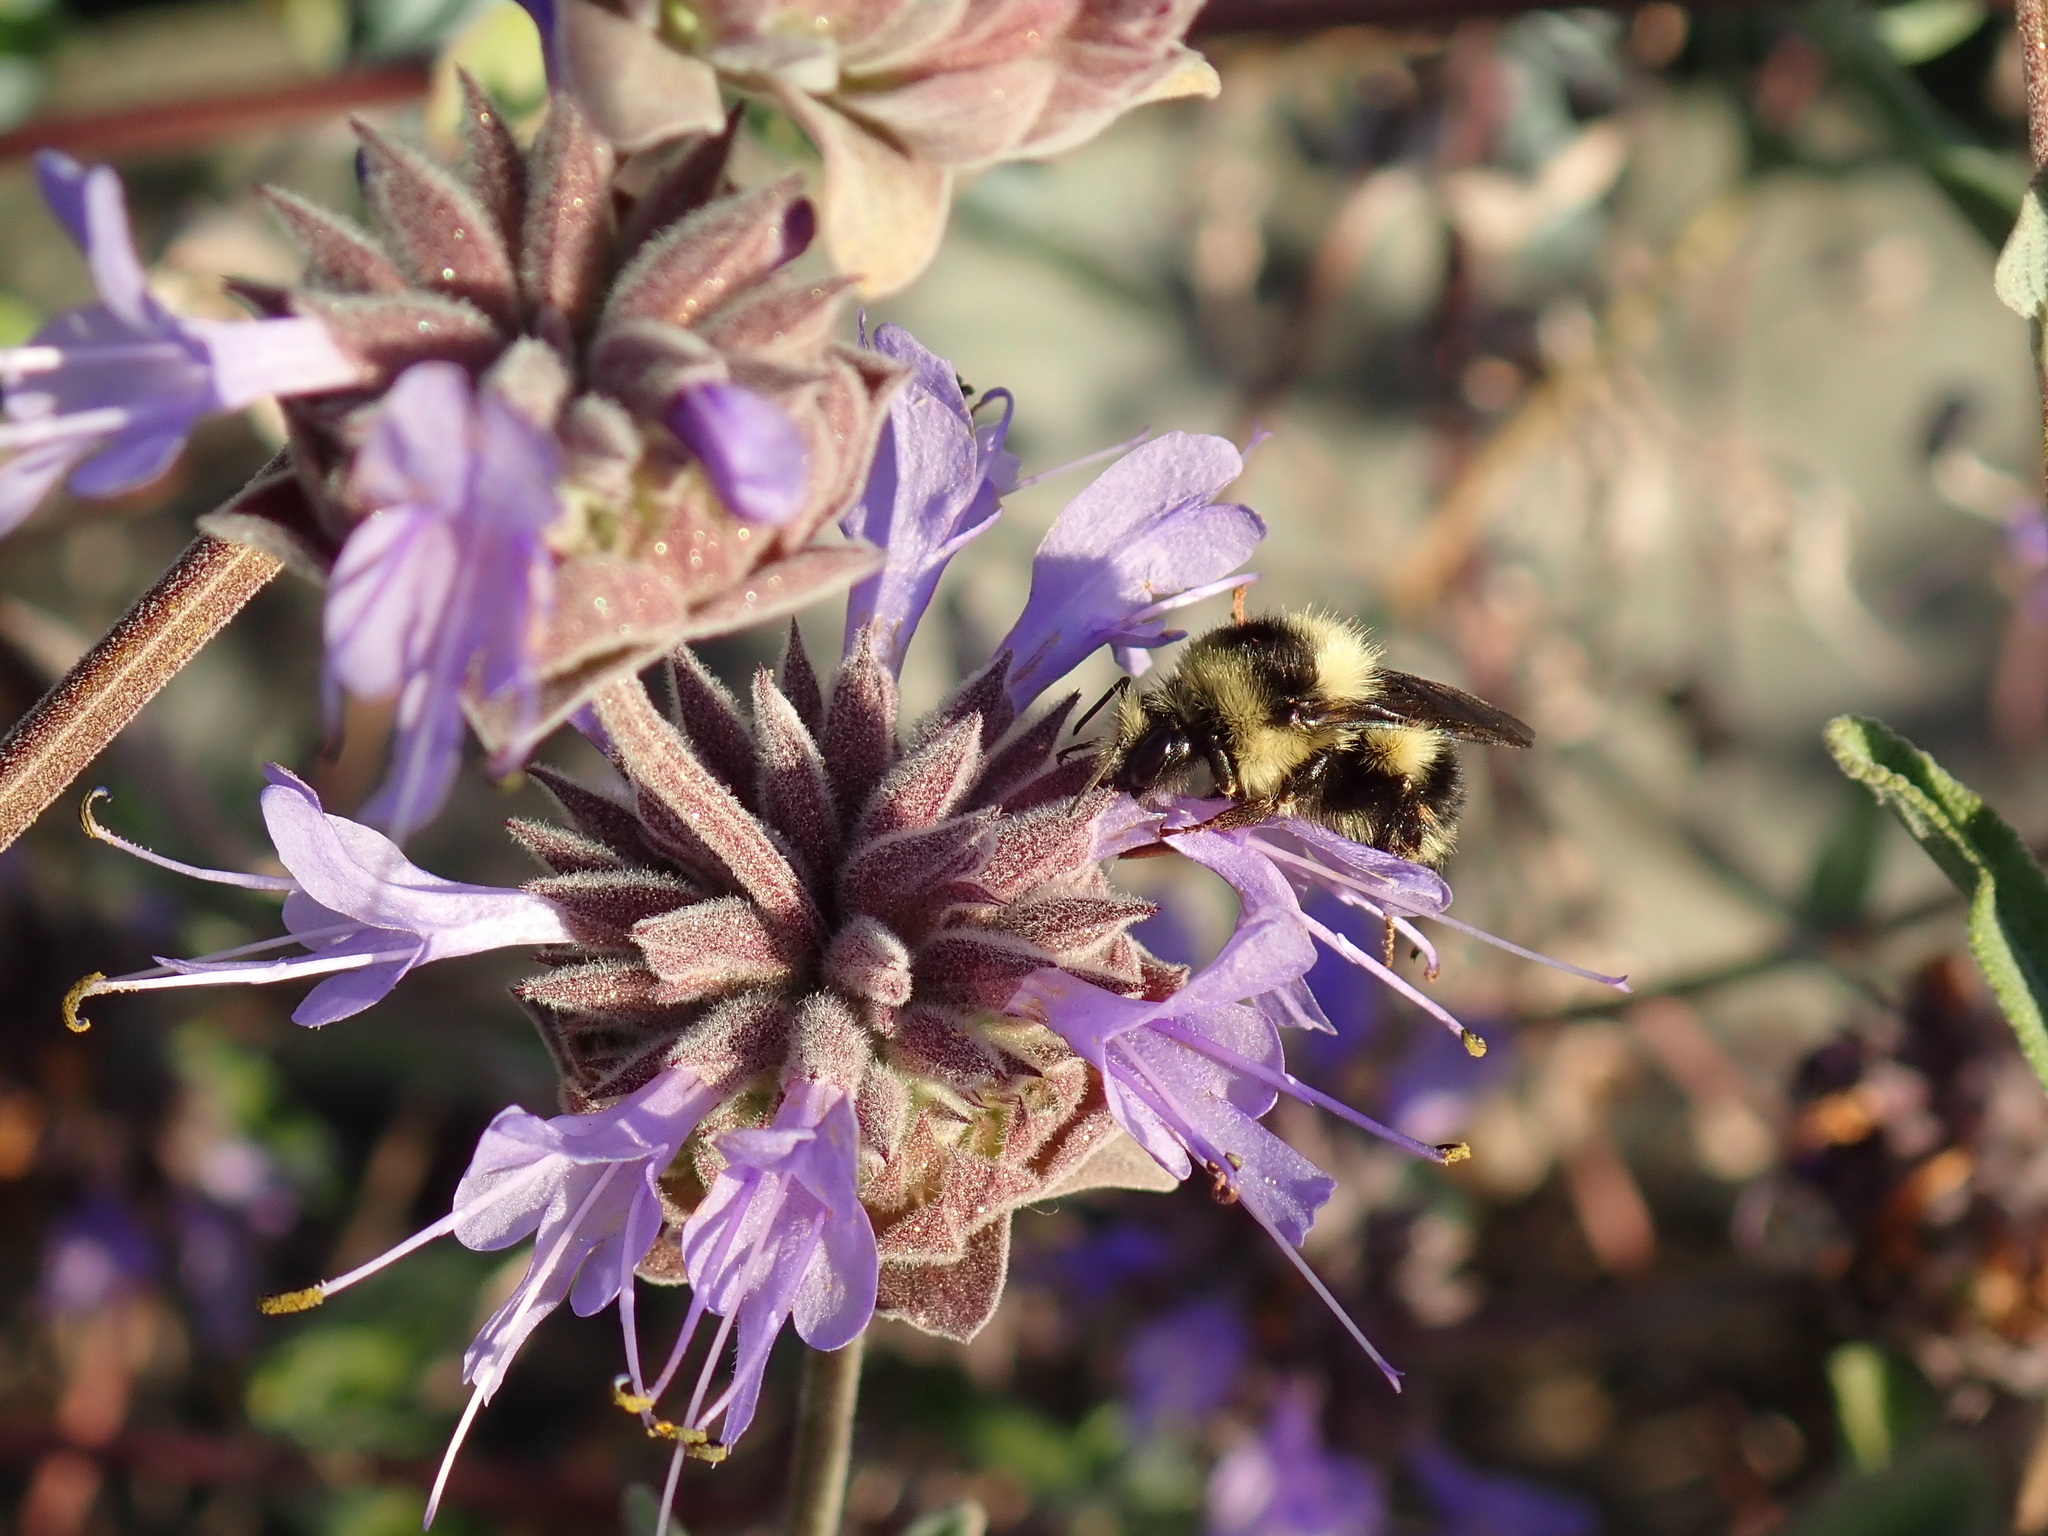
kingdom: Animalia
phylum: Arthropoda
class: Insecta
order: Hymenoptera
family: Apidae
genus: Bombus
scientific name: Bombus melanopygus
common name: Black tail bumble bee
